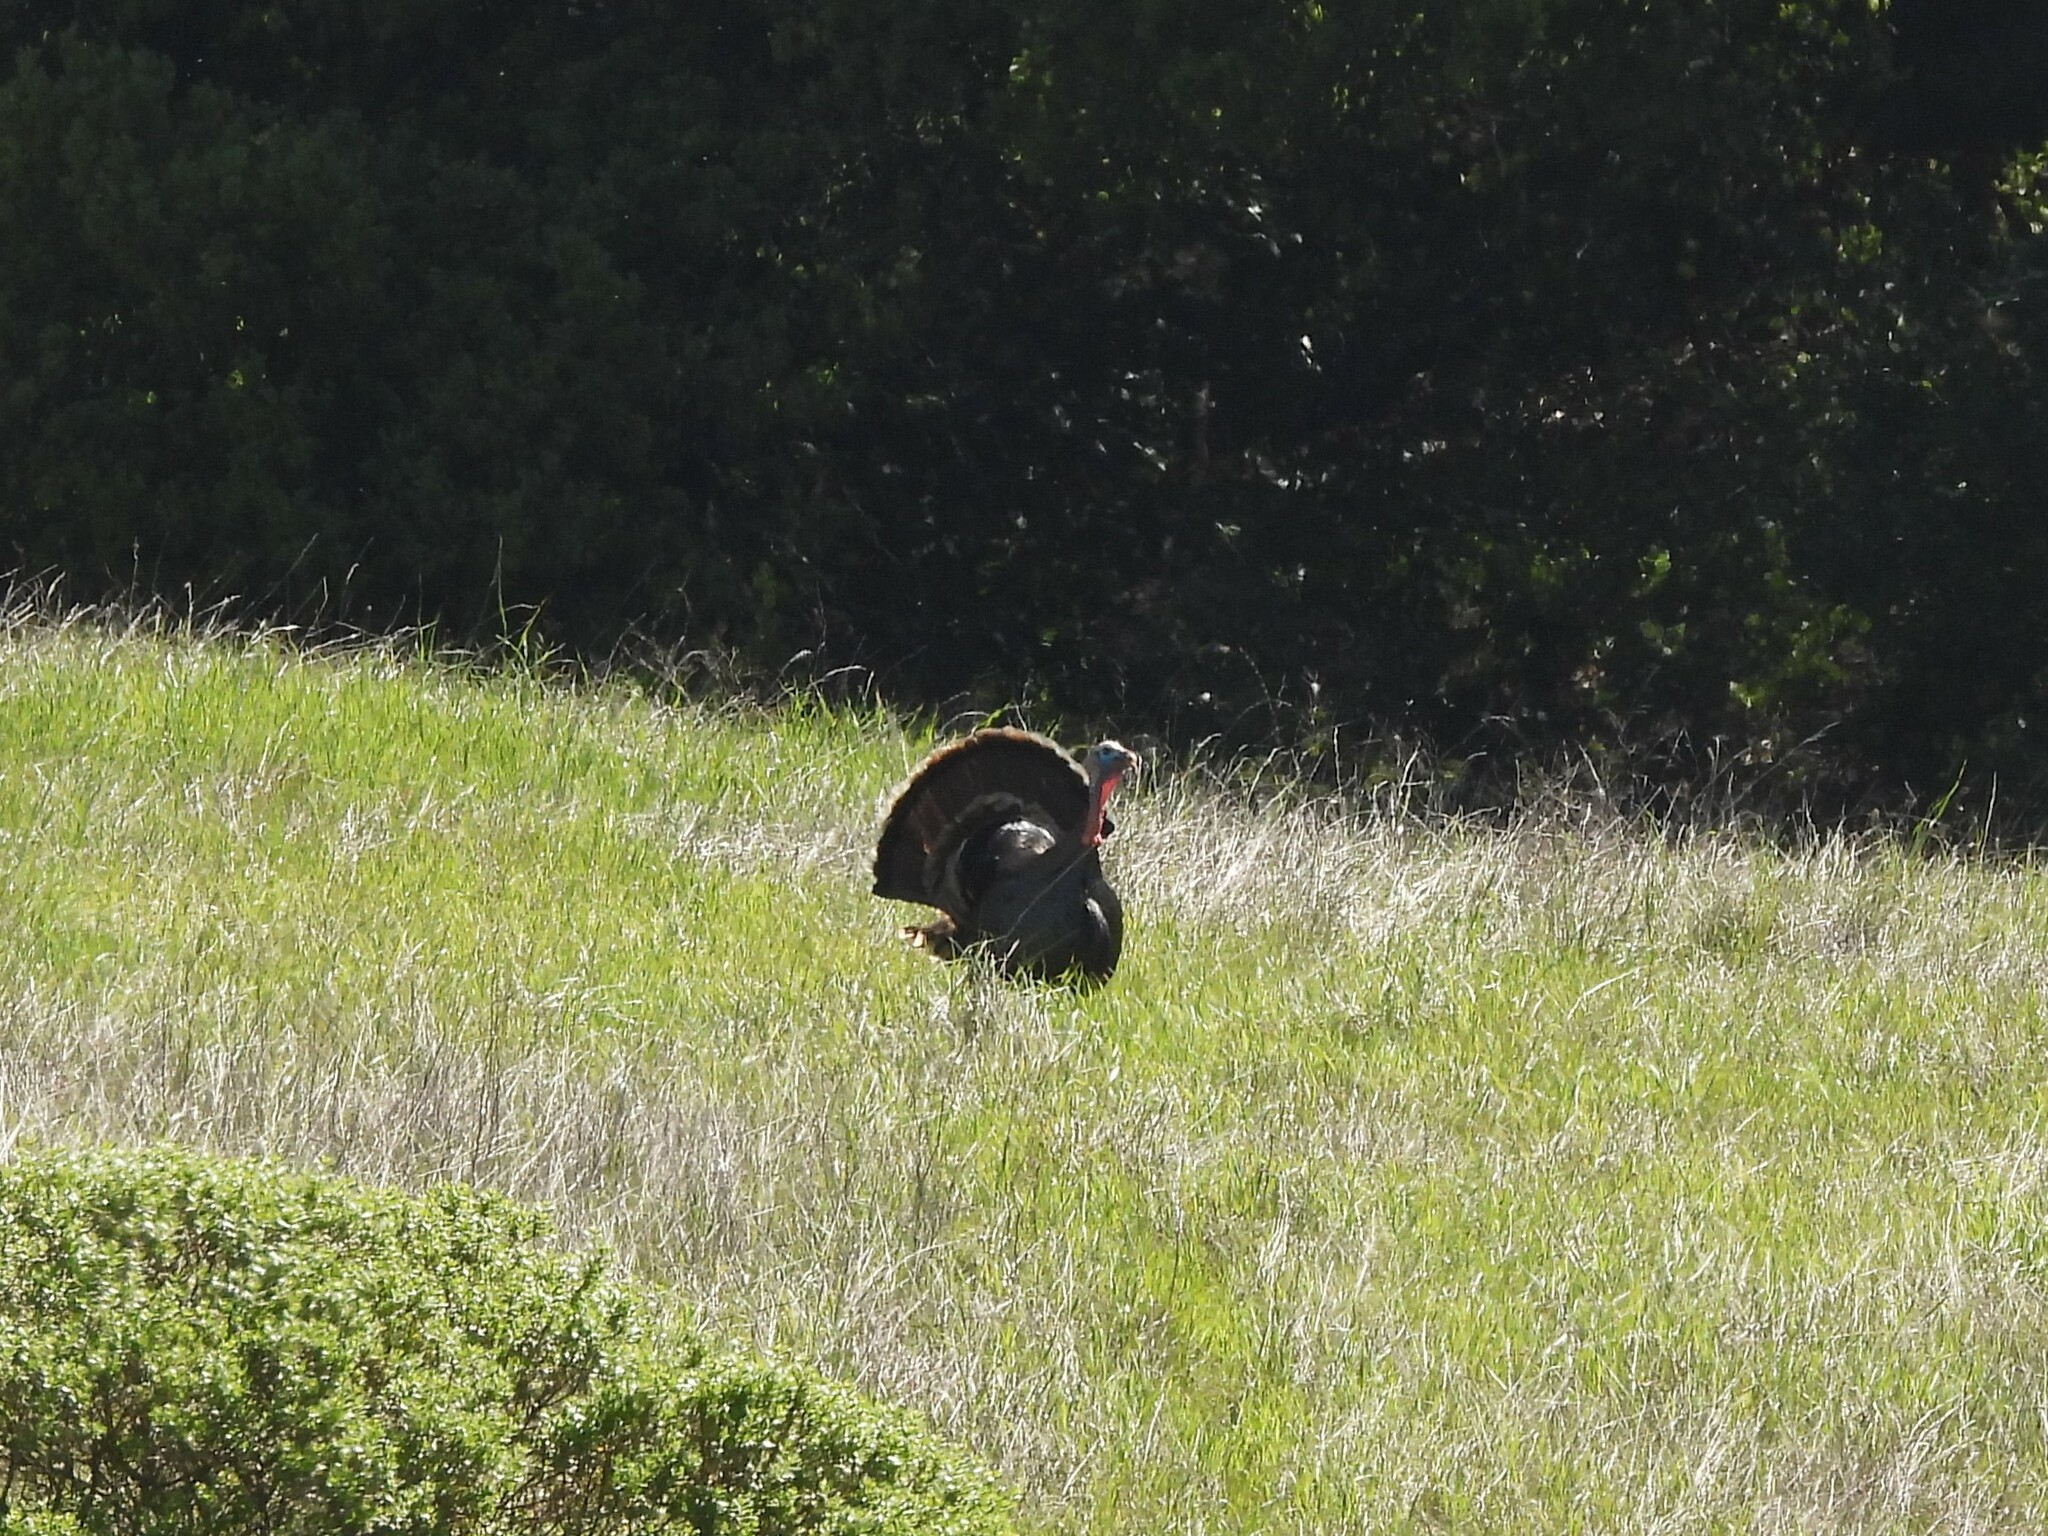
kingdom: Animalia
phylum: Chordata
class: Aves
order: Galliformes
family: Phasianidae
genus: Meleagris
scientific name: Meleagris gallopavo
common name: Wild turkey
